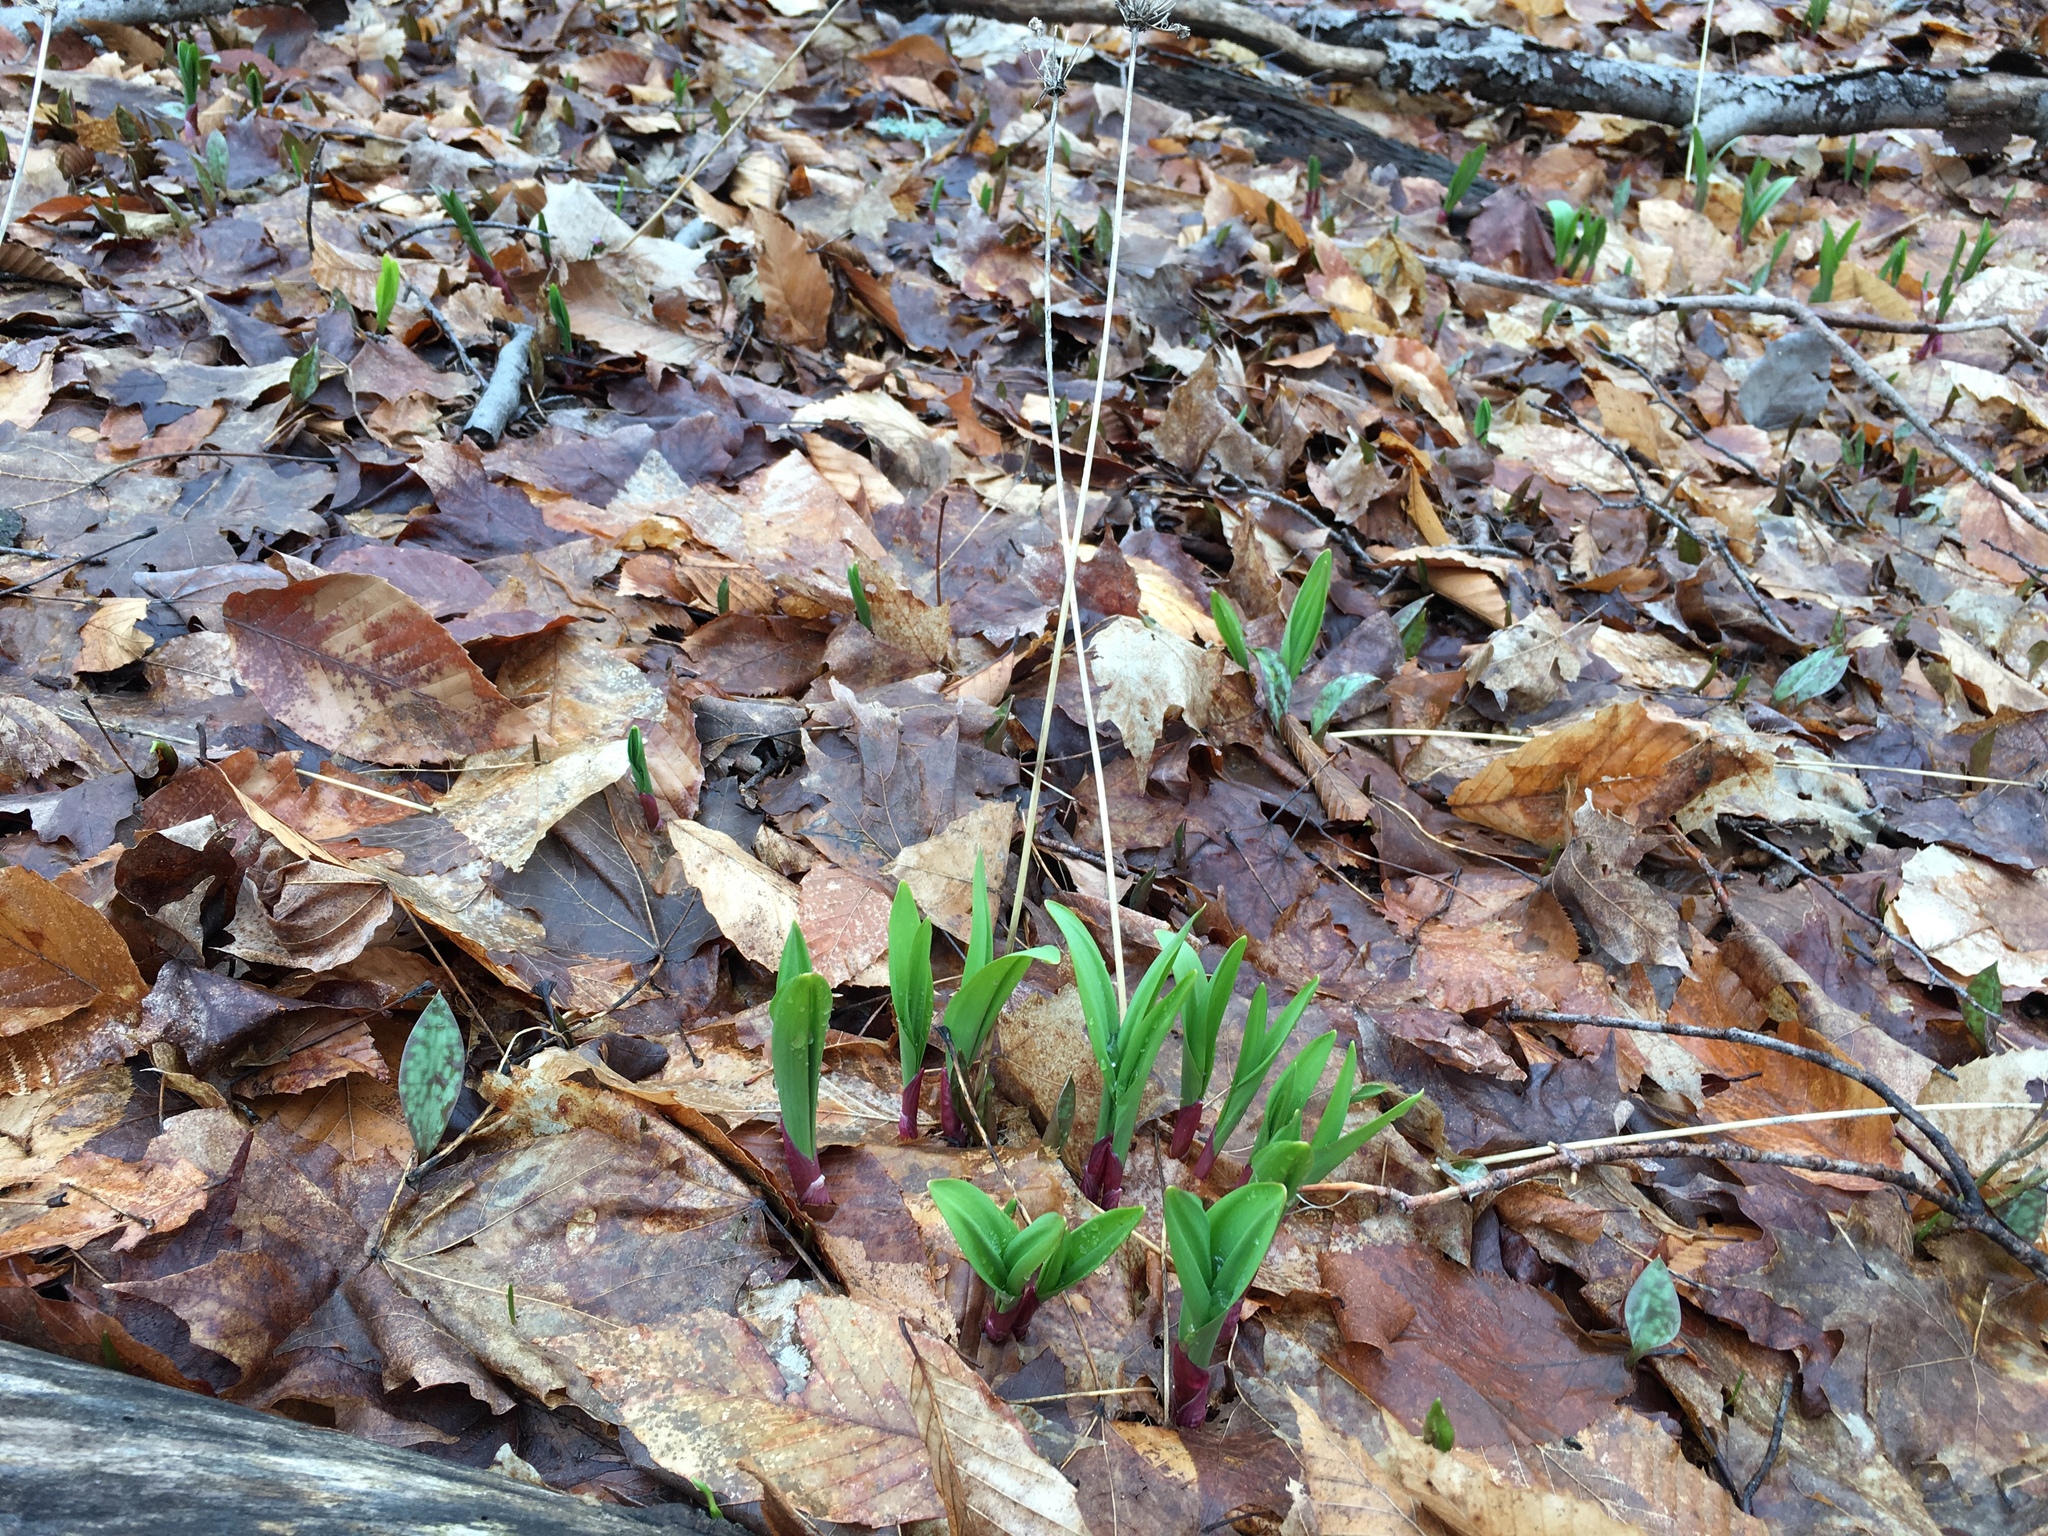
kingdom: Plantae
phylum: Tracheophyta
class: Liliopsida
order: Asparagales
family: Amaryllidaceae
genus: Allium
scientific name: Allium tricoccum
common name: Ramp
